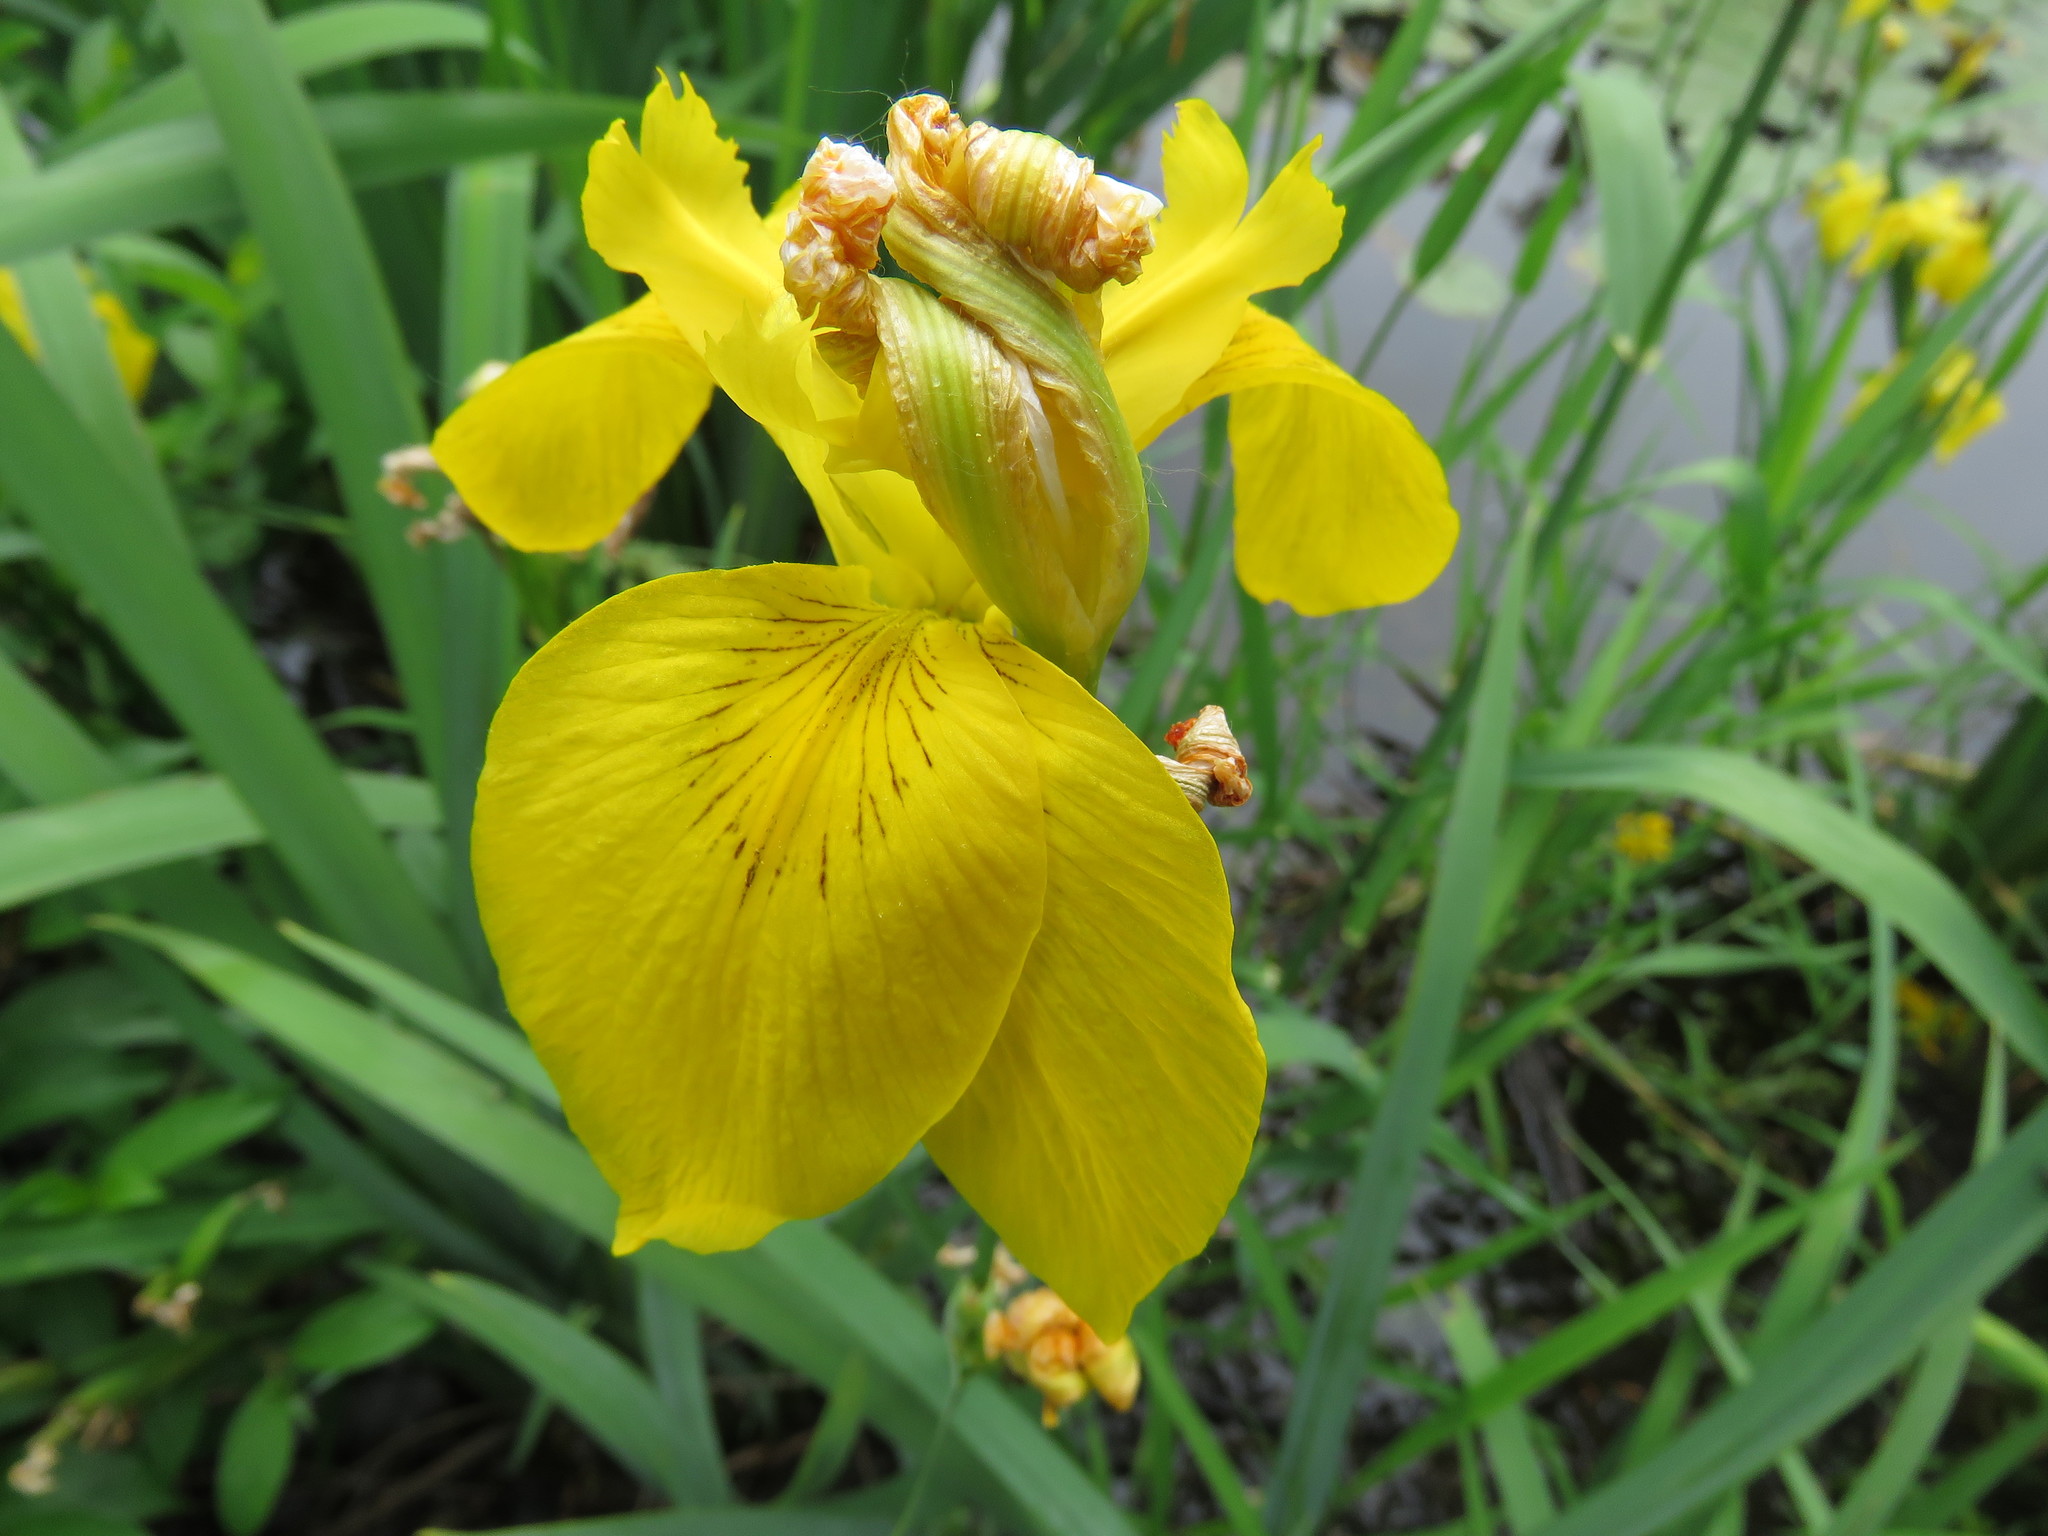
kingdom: Plantae
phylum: Tracheophyta
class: Liliopsida
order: Asparagales
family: Iridaceae
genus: Iris
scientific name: Iris pseudacorus
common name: Yellow flag
